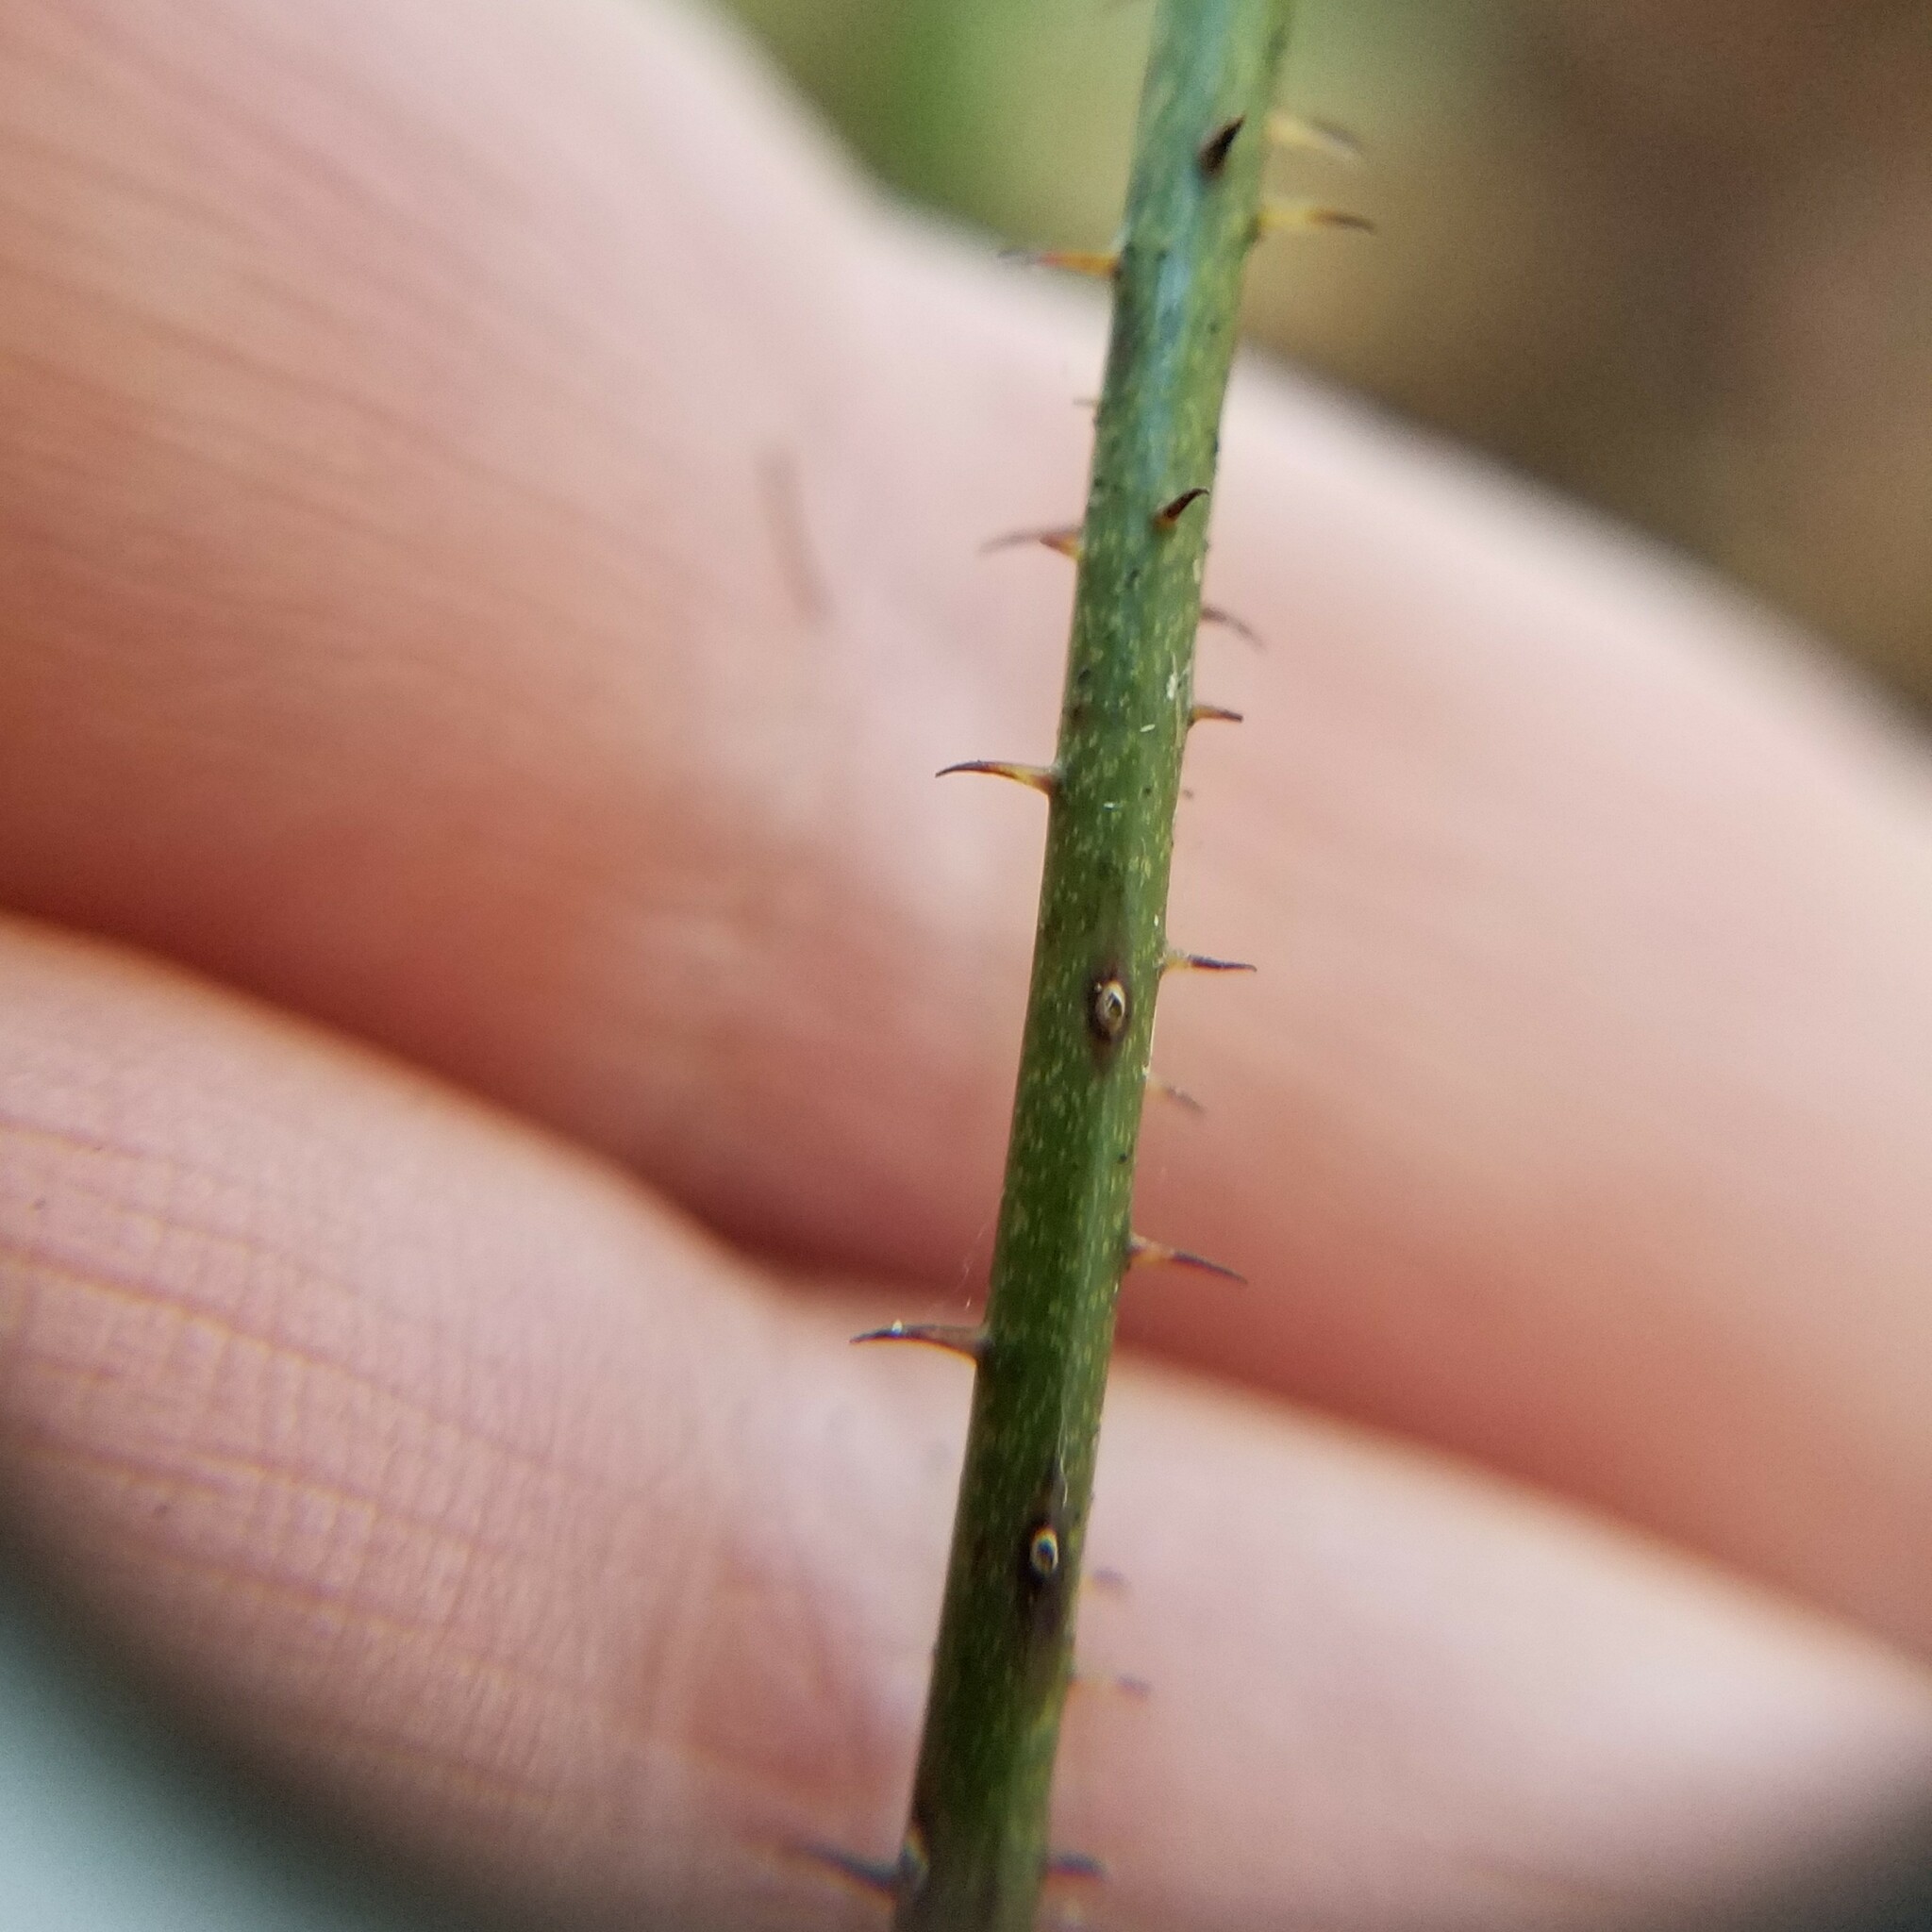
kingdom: Plantae
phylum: Tracheophyta
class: Liliopsida
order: Liliales
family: Smilacaceae
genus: Smilax
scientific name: Smilax glauca
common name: Cat greenbrier
